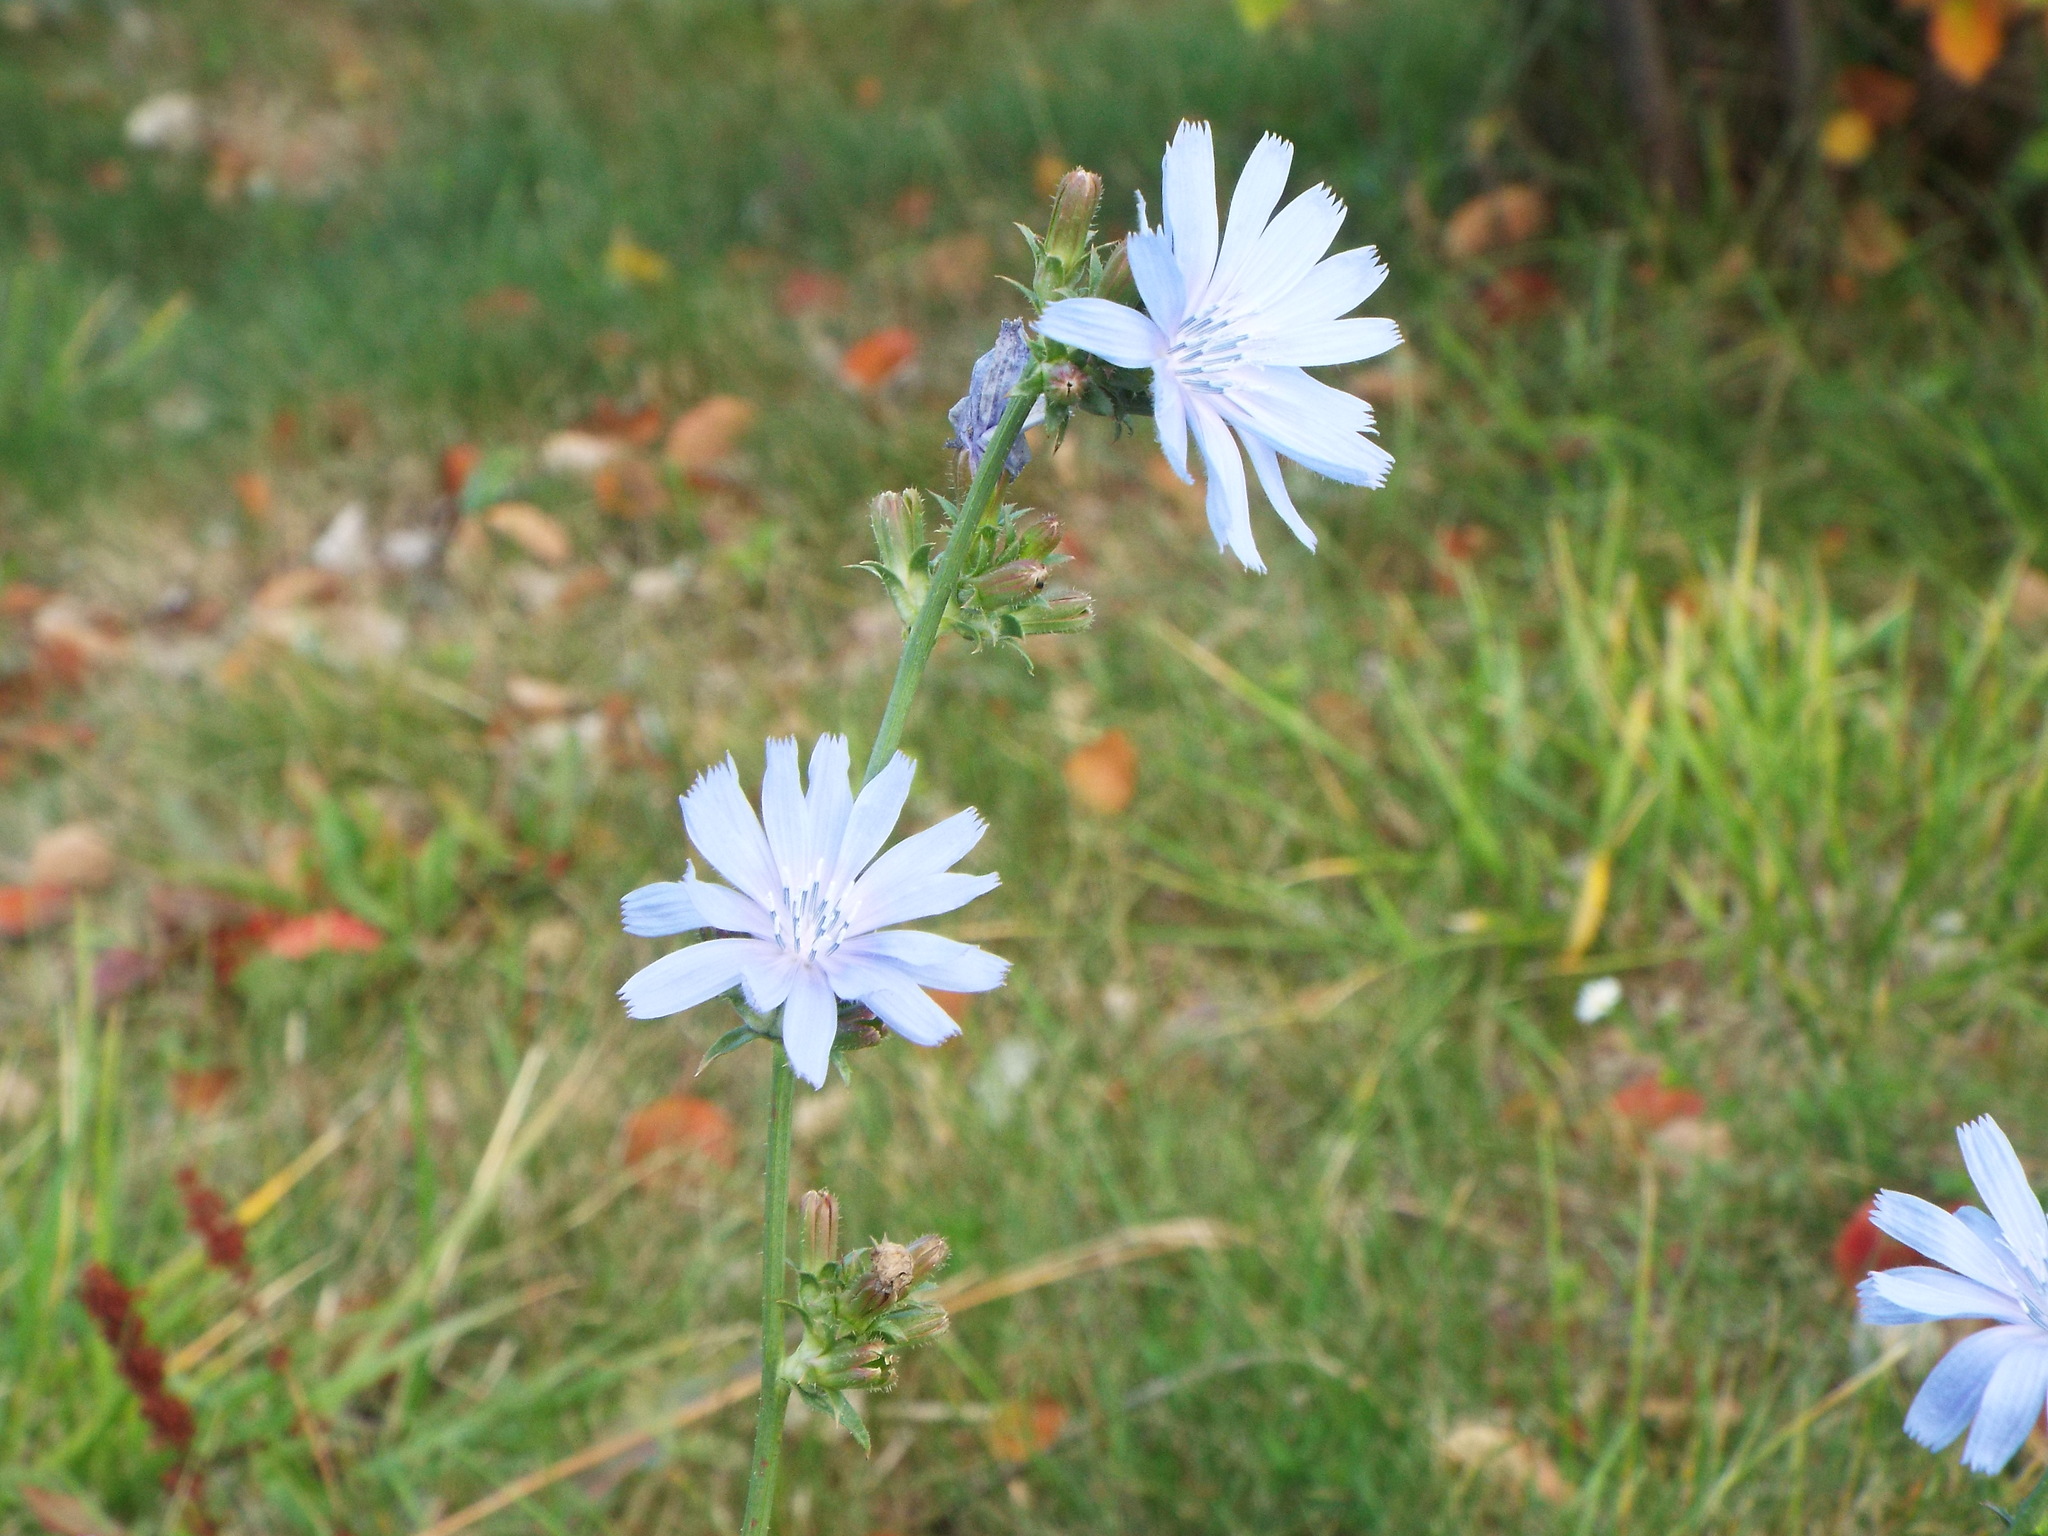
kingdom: Plantae
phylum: Tracheophyta
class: Magnoliopsida
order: Asterales
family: Asteraceae
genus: Cichorium
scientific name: Cichorium intybus
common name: Chicory
